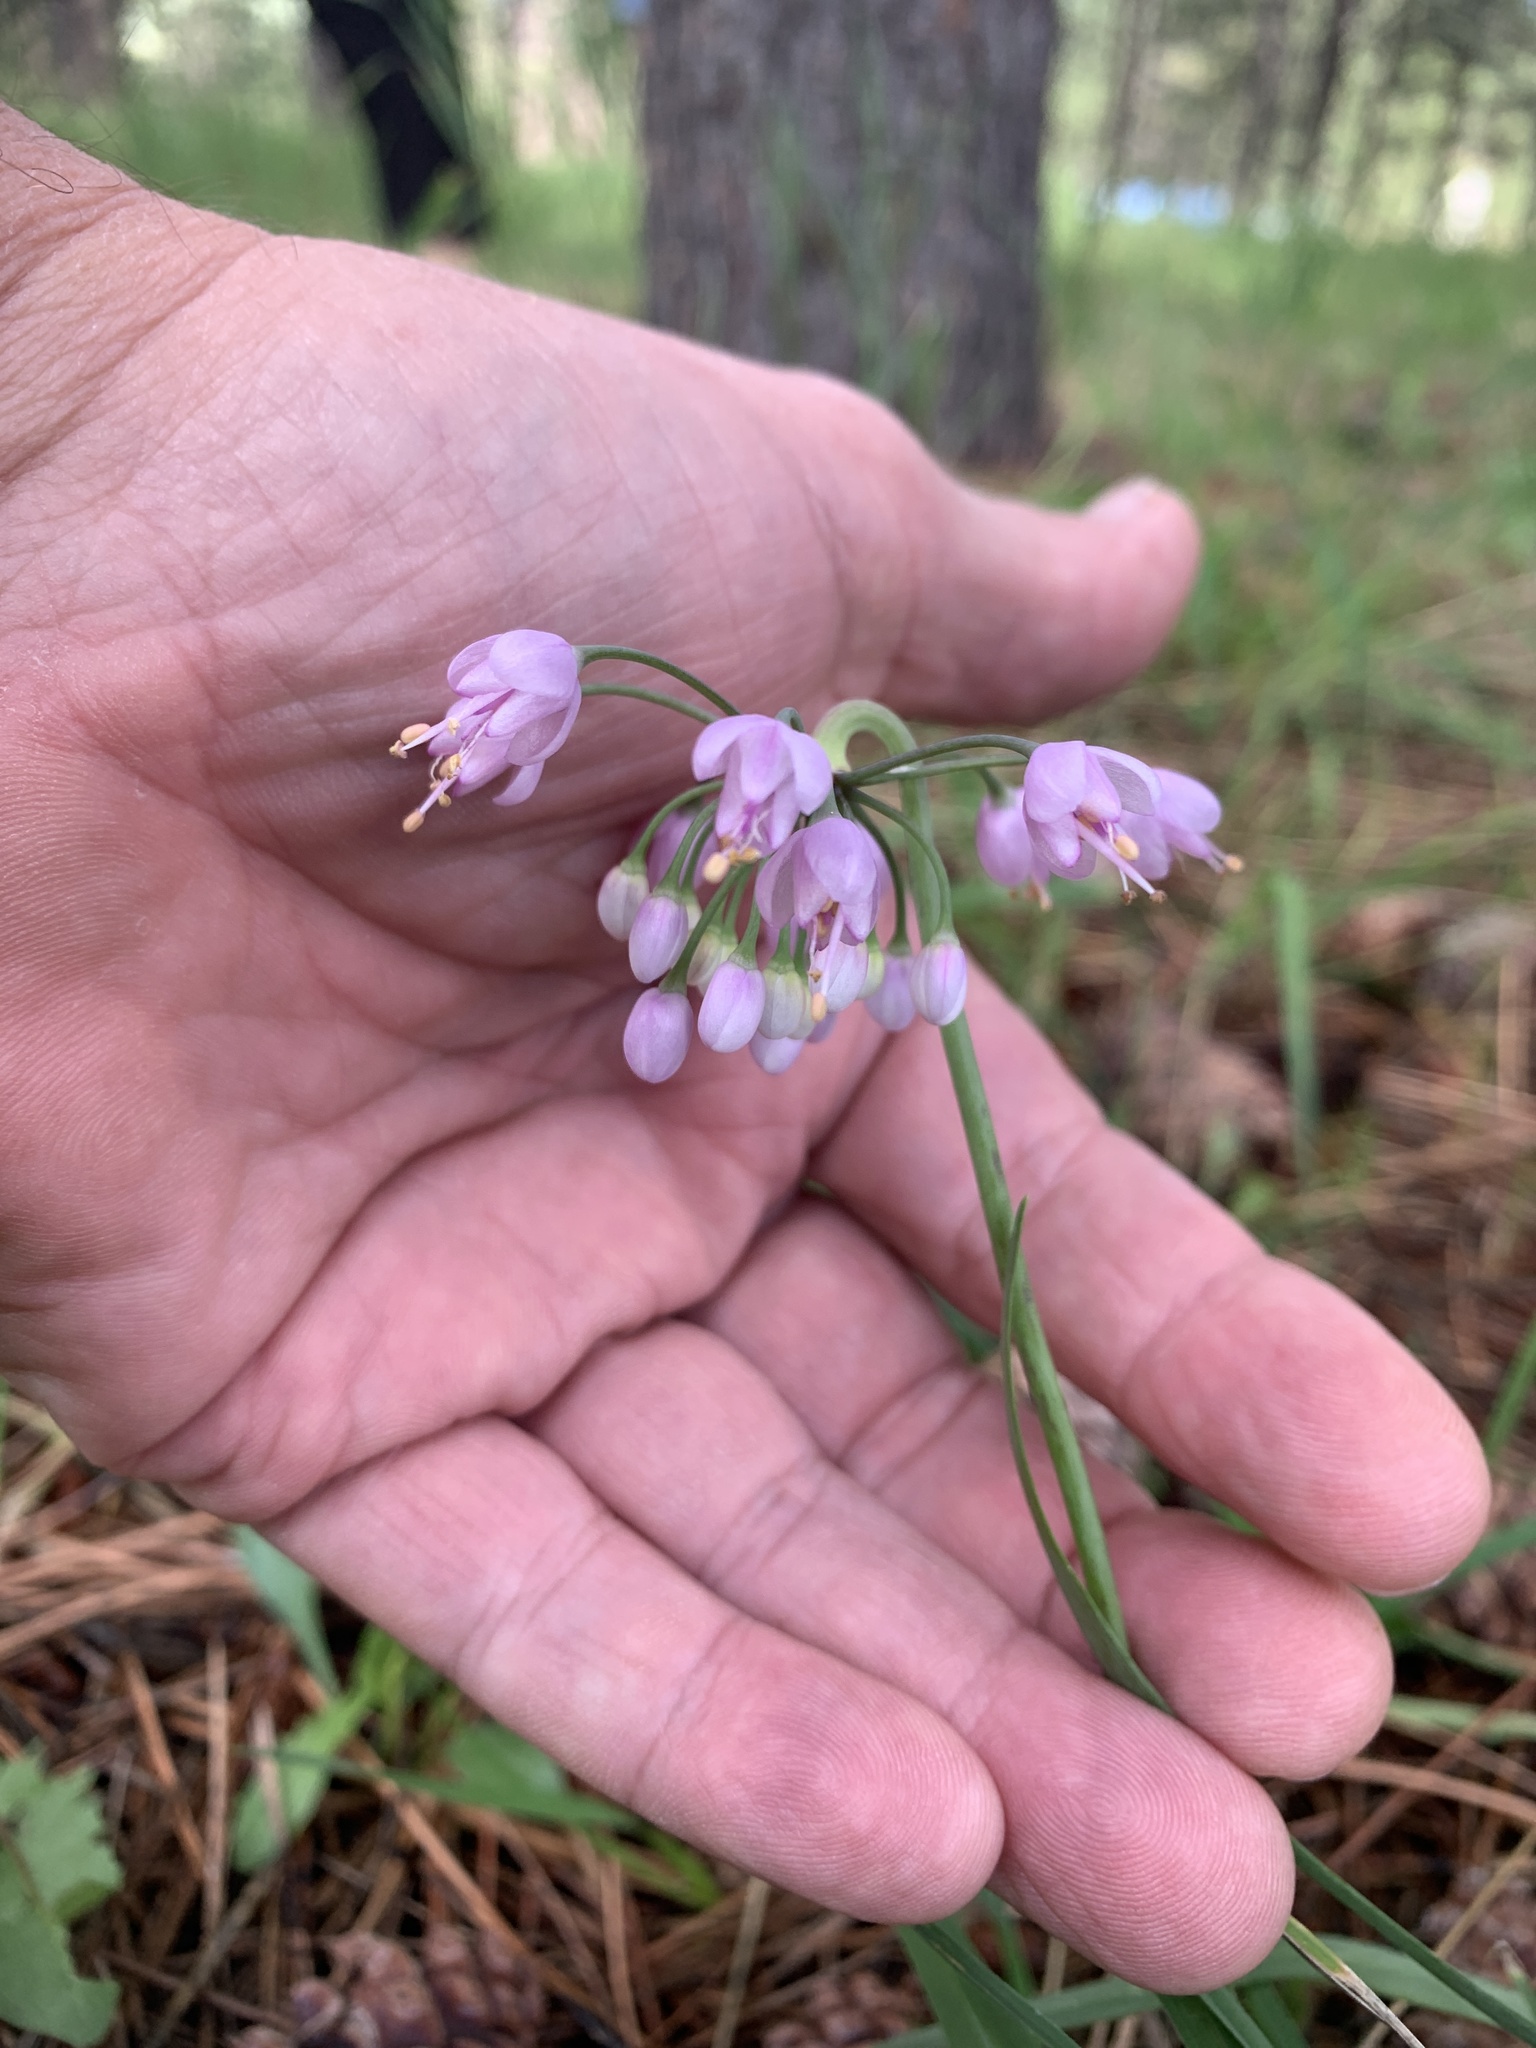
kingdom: Plantae
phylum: Tracheophyta
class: Liliopsida
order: Asparagales
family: Amaryllidaceae
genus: Allium
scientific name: Allium cernuum
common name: Nodding onion
